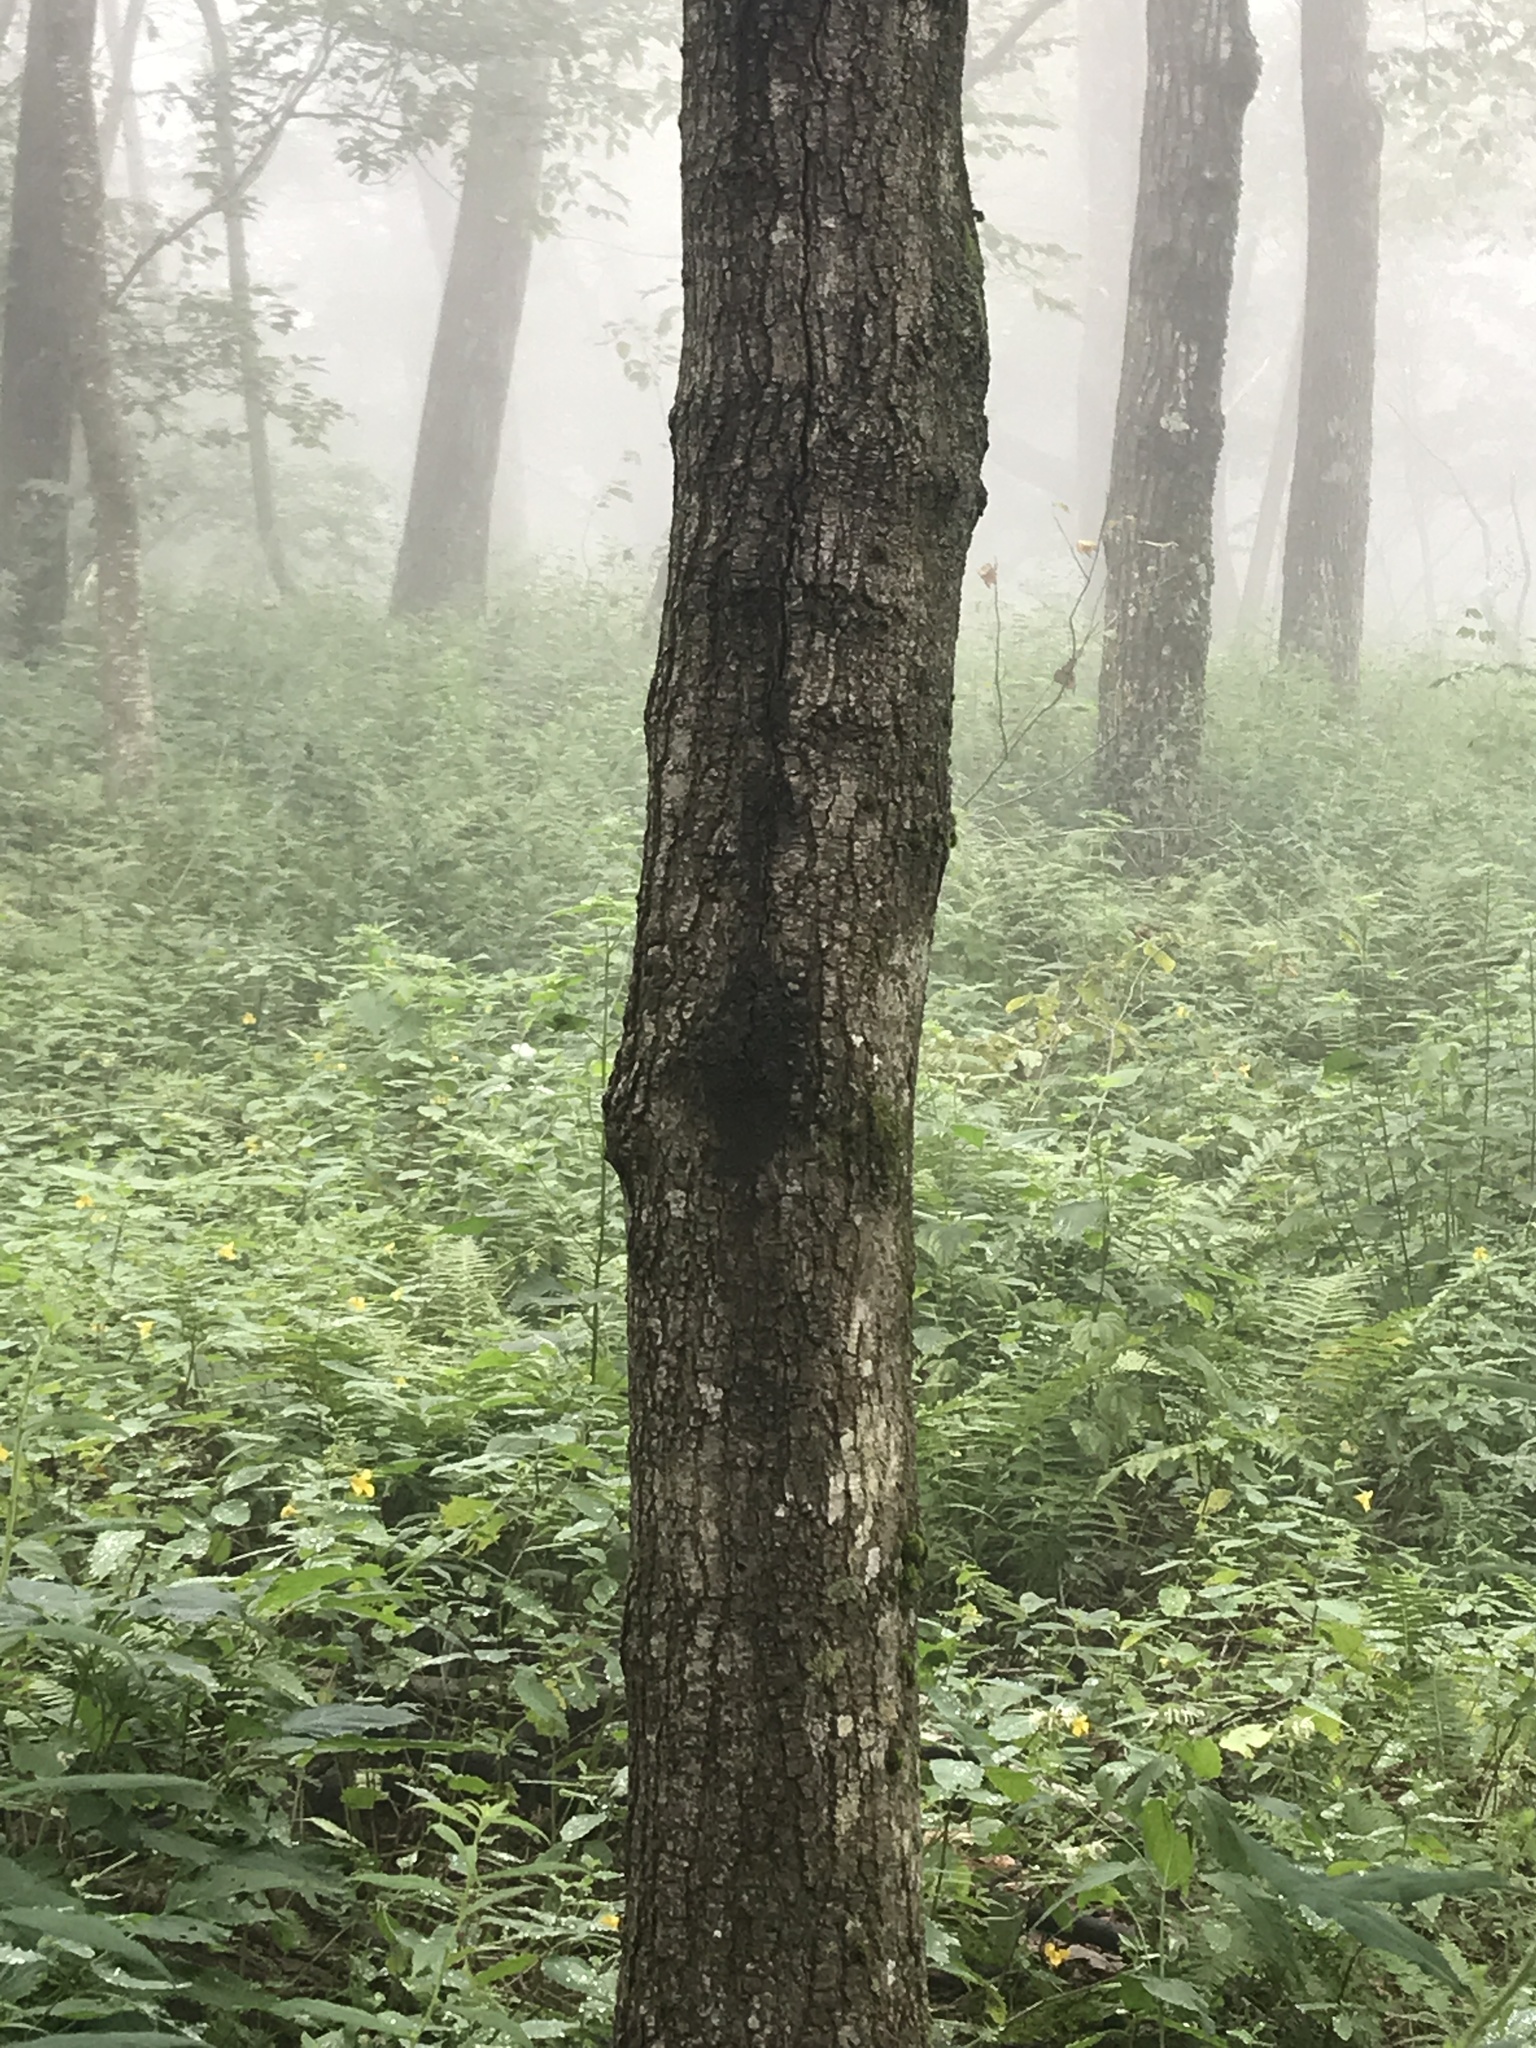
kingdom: Plantae
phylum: Tracheophyta
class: Magnoliopsida
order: Sapindales
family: Sapindaceae
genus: Acer
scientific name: Acer saccharum
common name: Sugar maple
